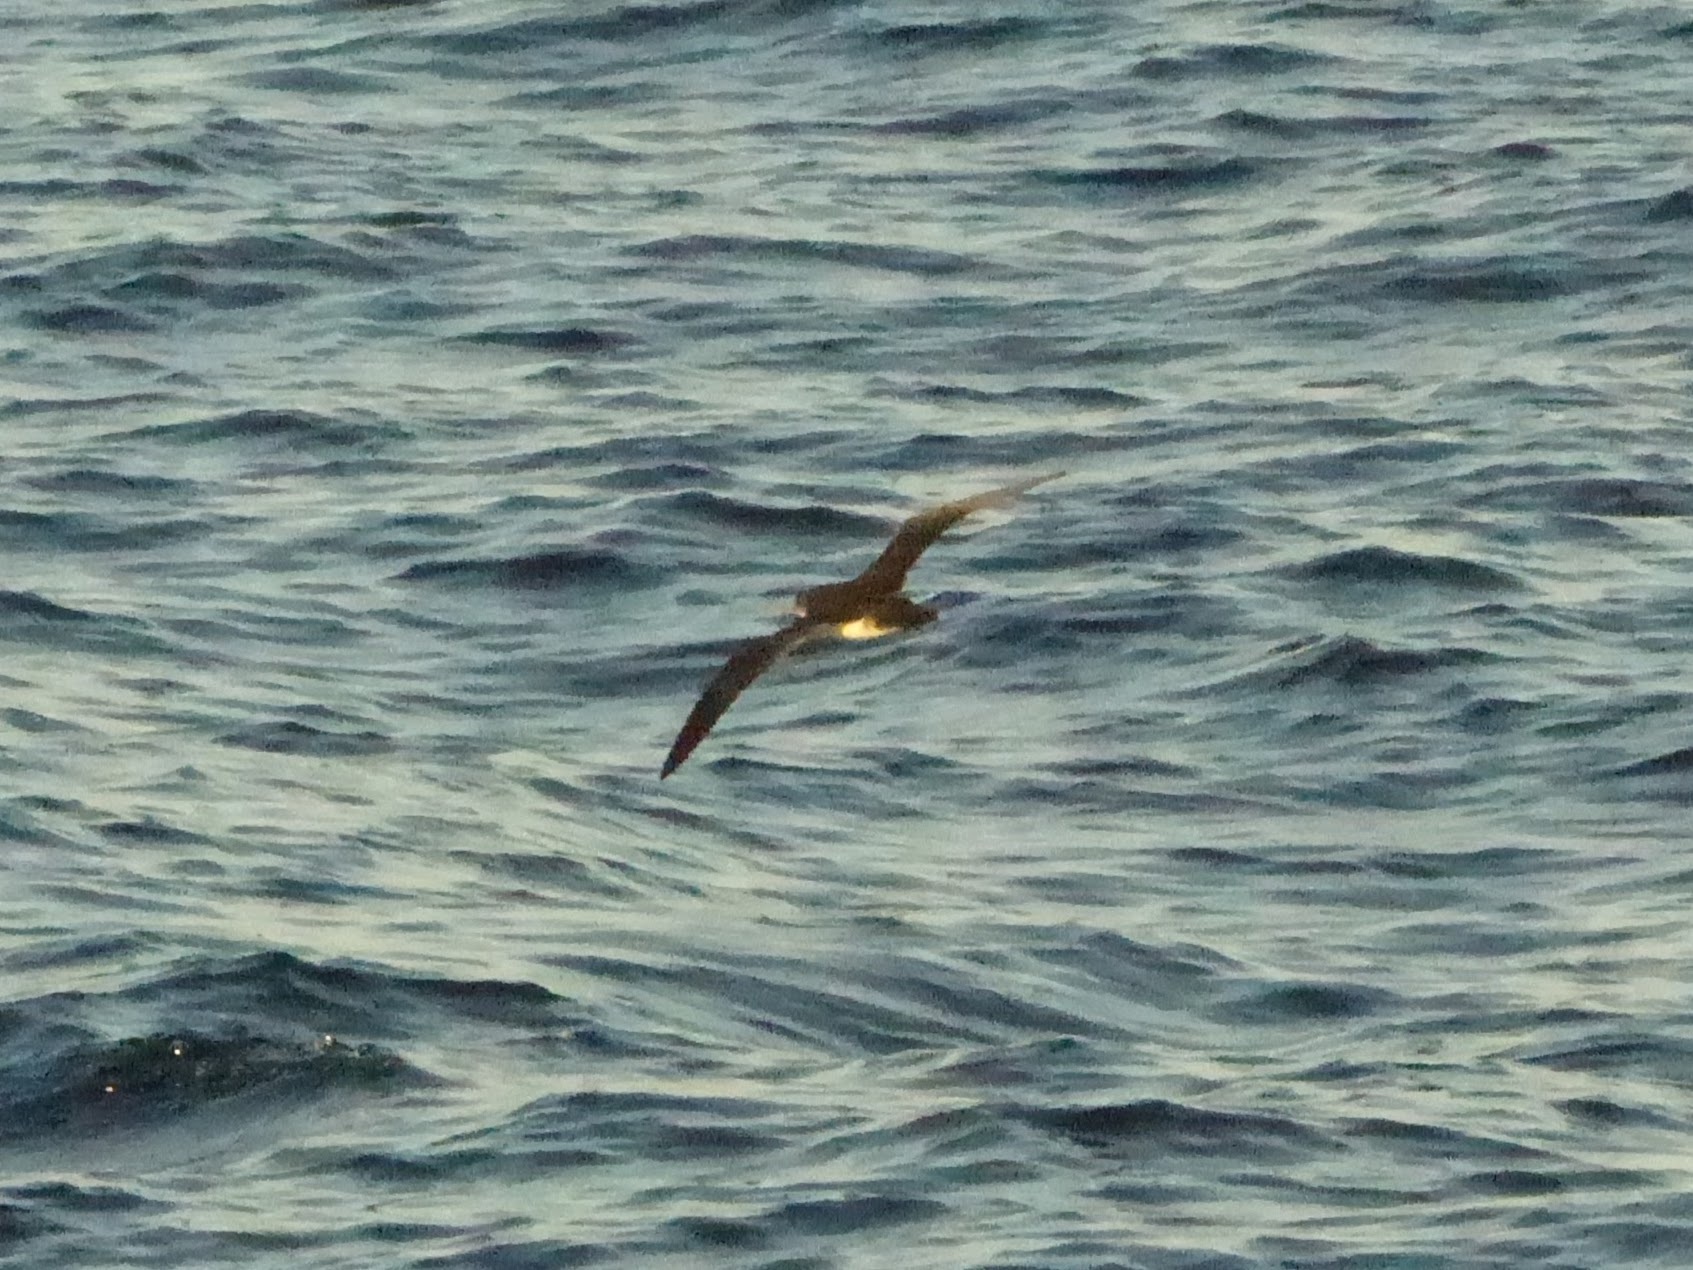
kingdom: Animalia
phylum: Chordata
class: Aves
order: Procellariiformes
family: Procellariidae
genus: Puffinus
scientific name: Puffinus opisthomelas
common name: Black-vented shearwater
